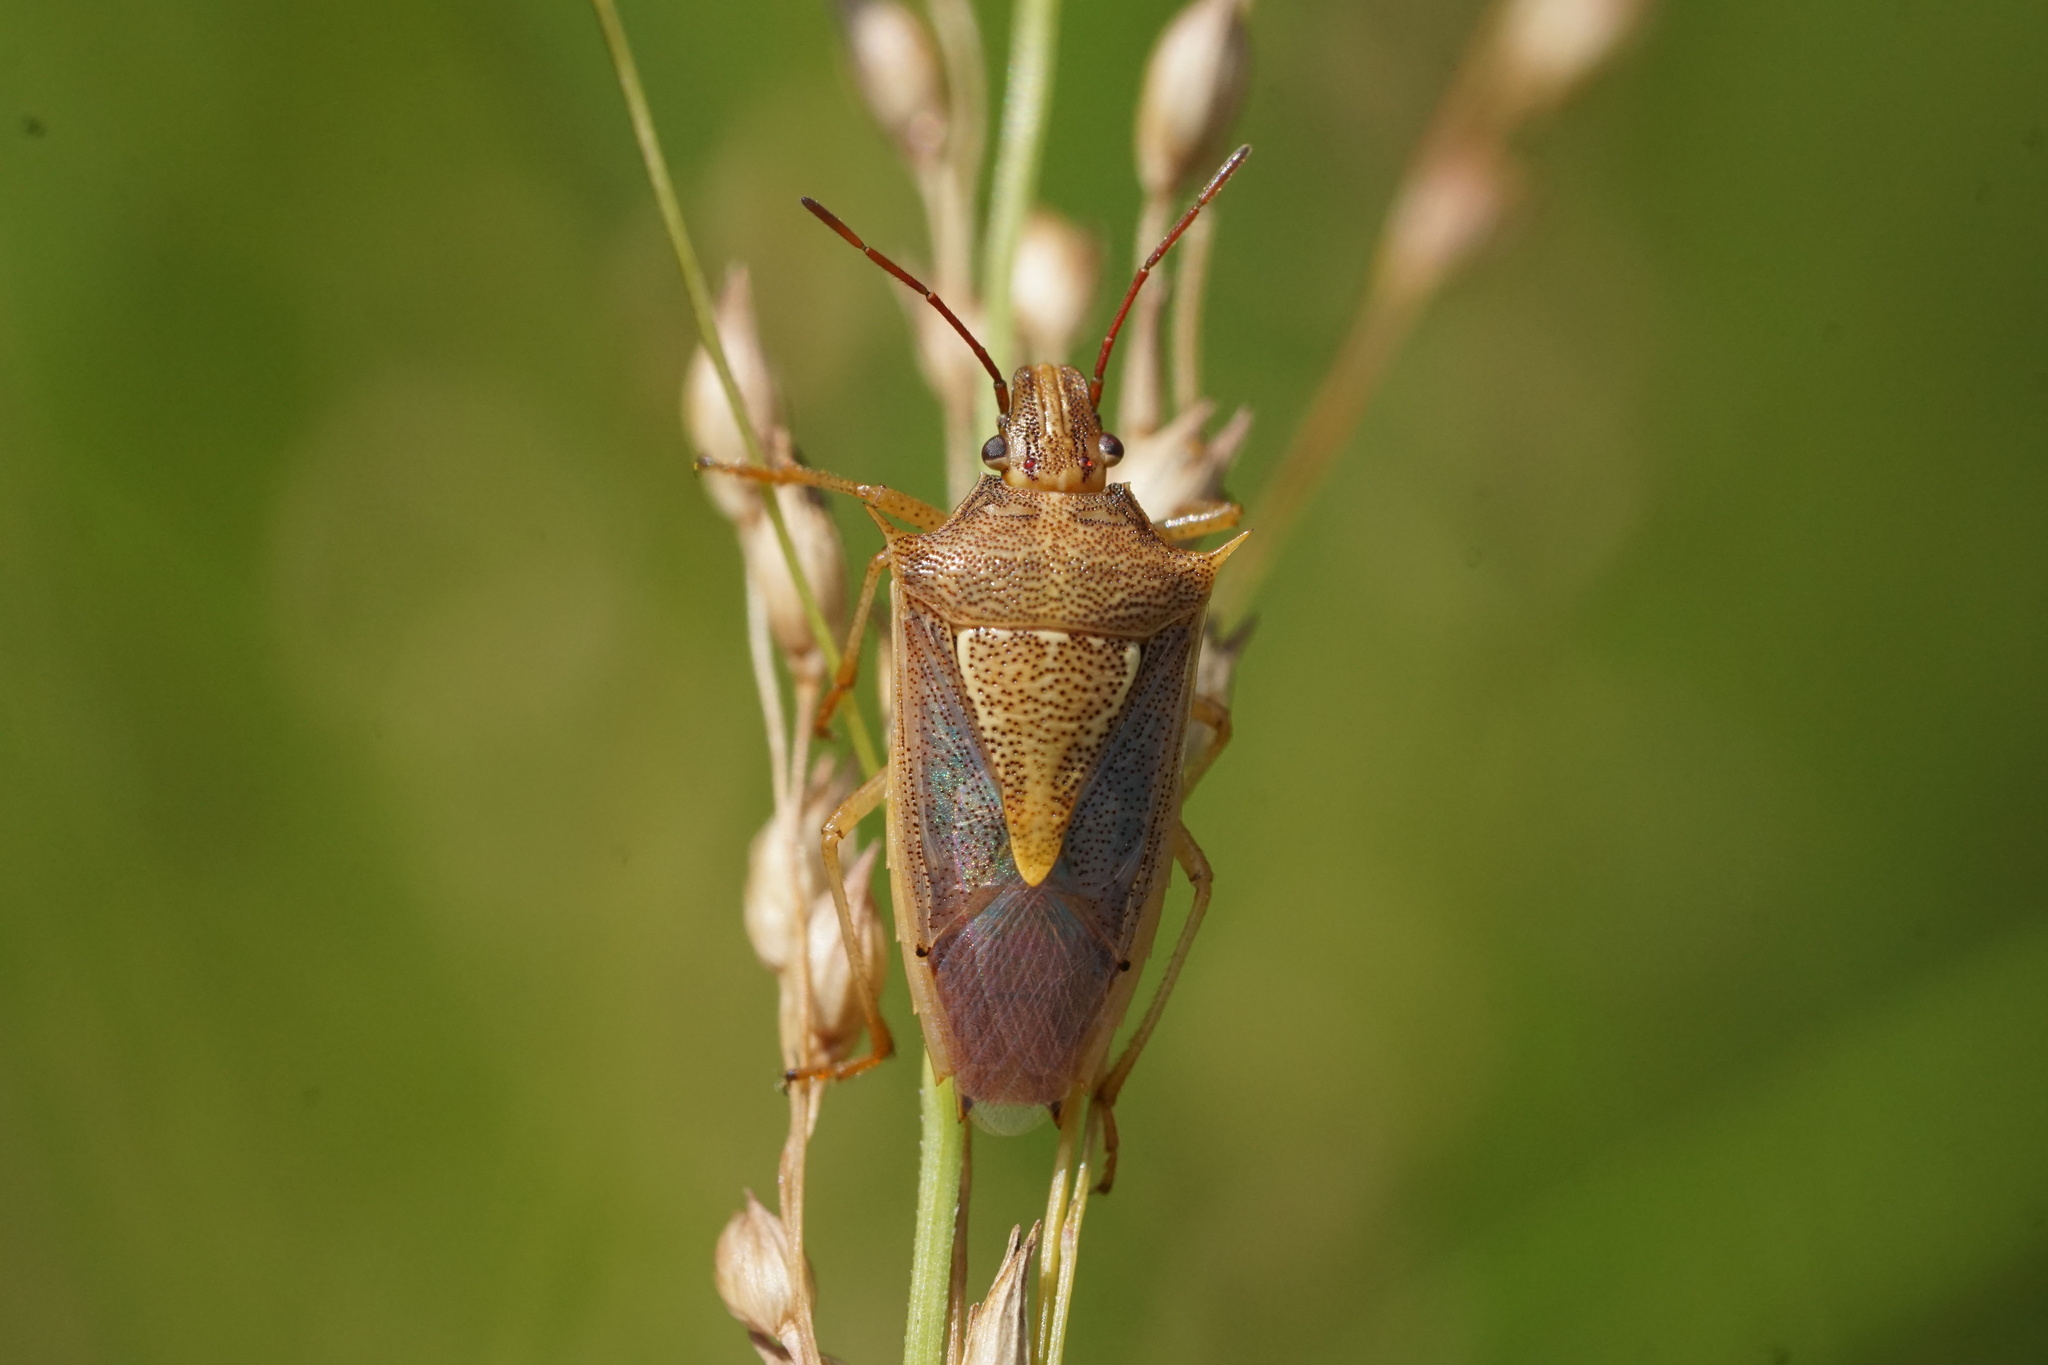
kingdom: Animalia
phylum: Arthropoda
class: Insecta
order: Hemiptera
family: Pentatomidae
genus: Oebalus
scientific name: Oebalus pugnax
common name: Rice stink bug
